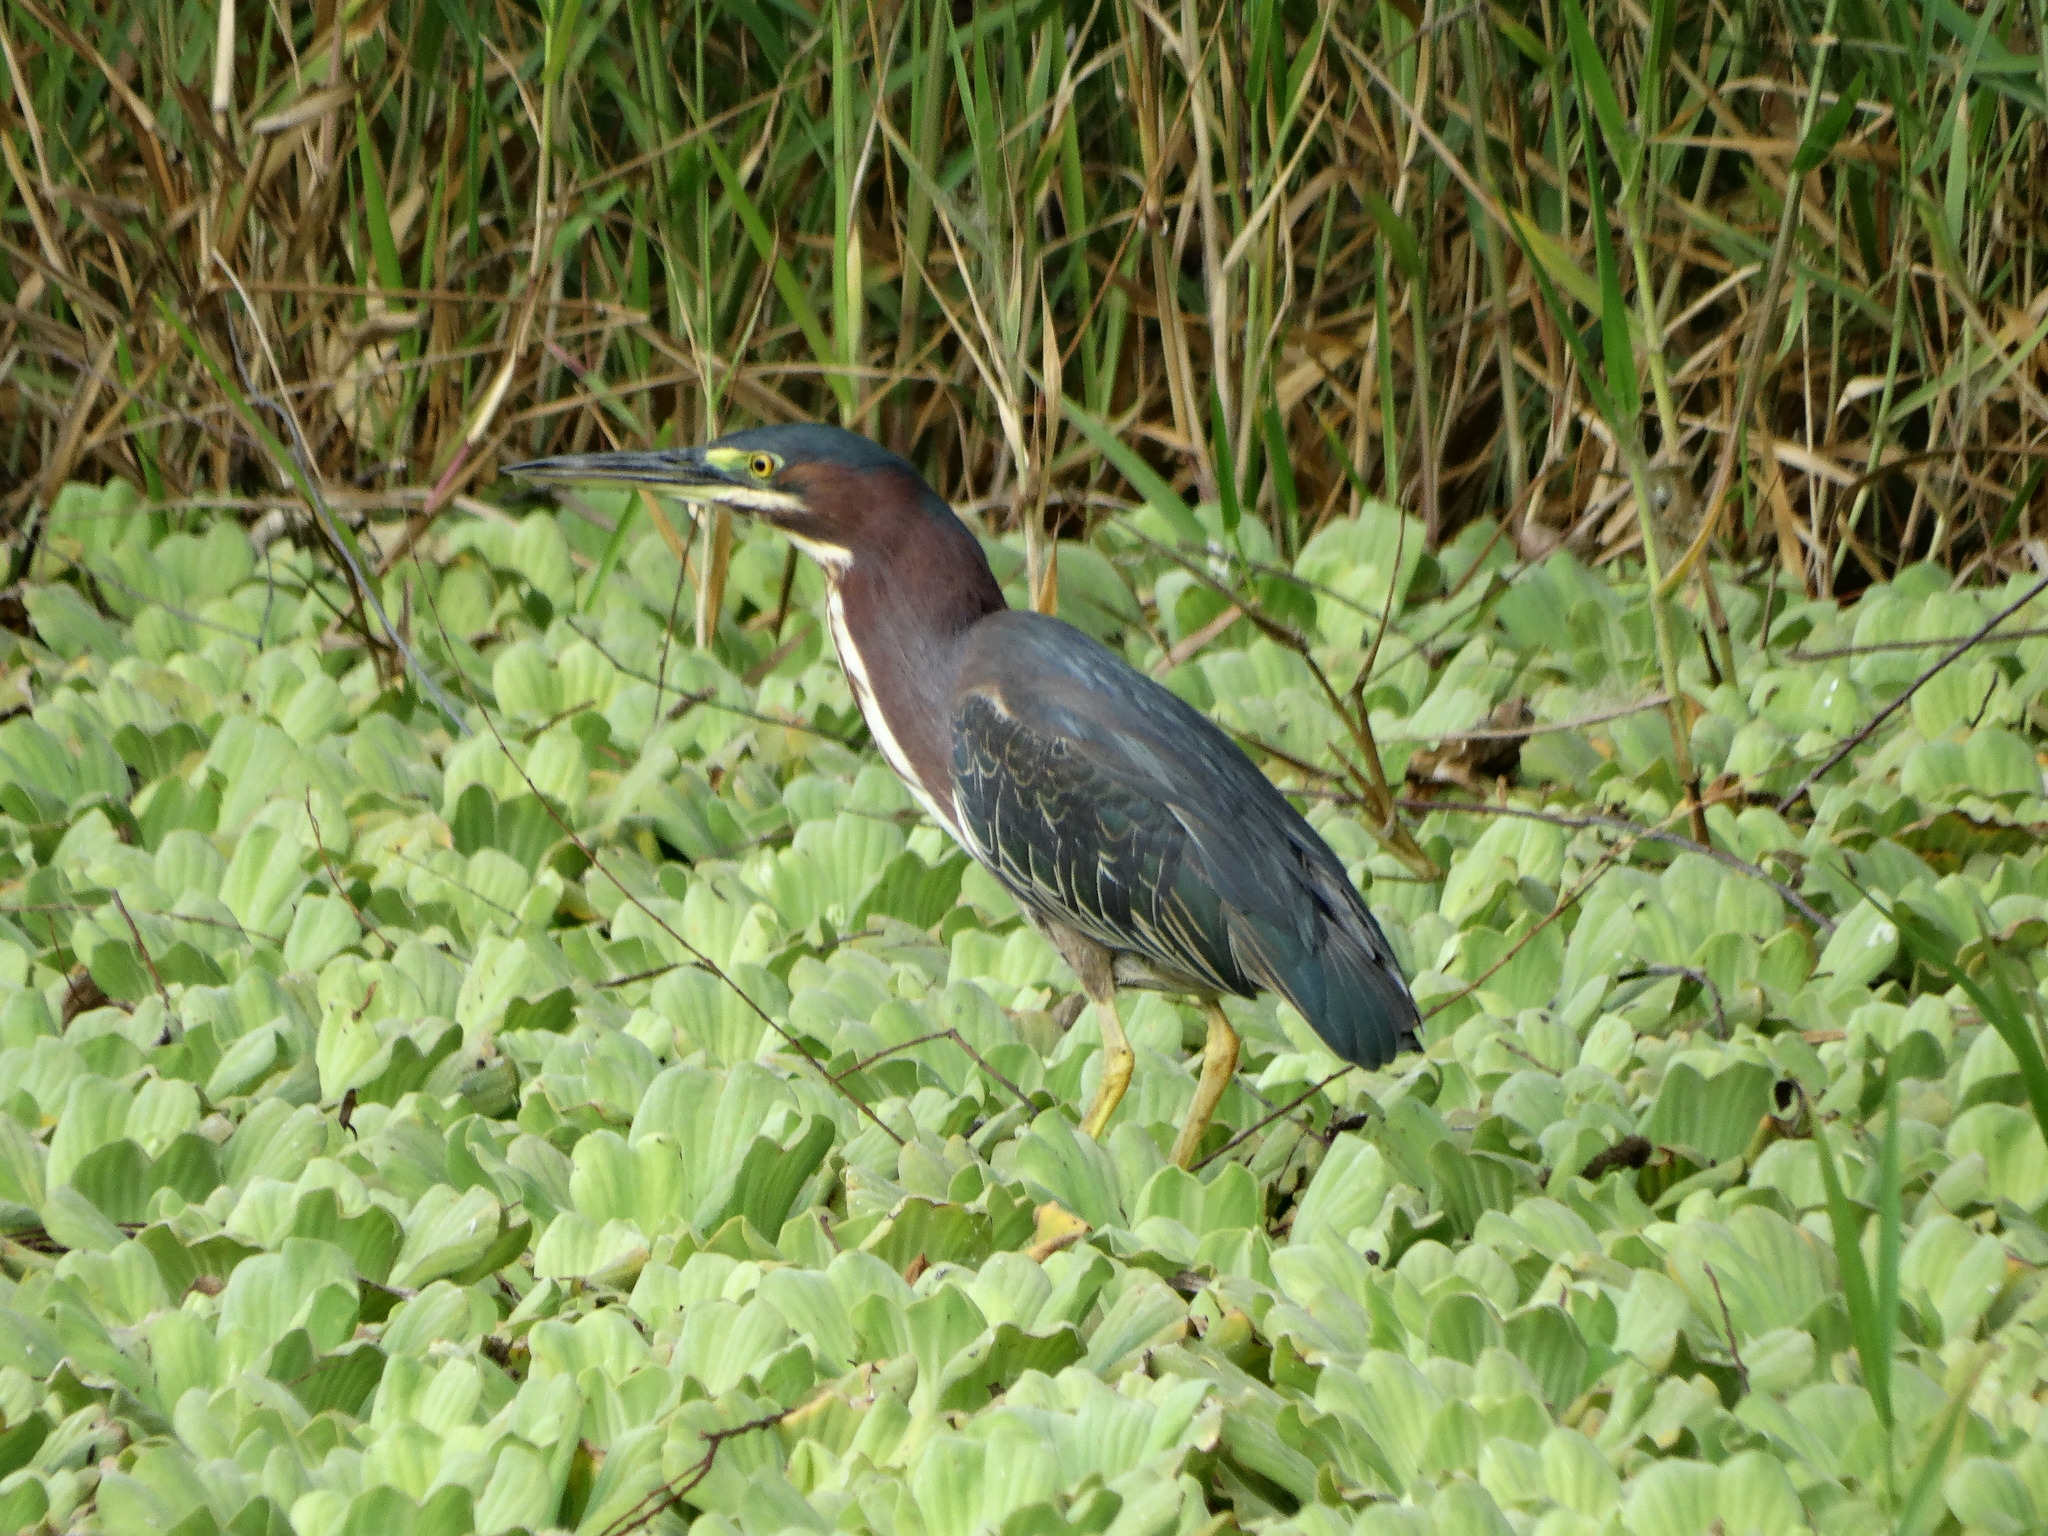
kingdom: Animalia
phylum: Chordata
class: Aves
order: Pelecaniformes
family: Ardeidae
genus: Butorides
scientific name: Butorides virescens
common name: Green heron
